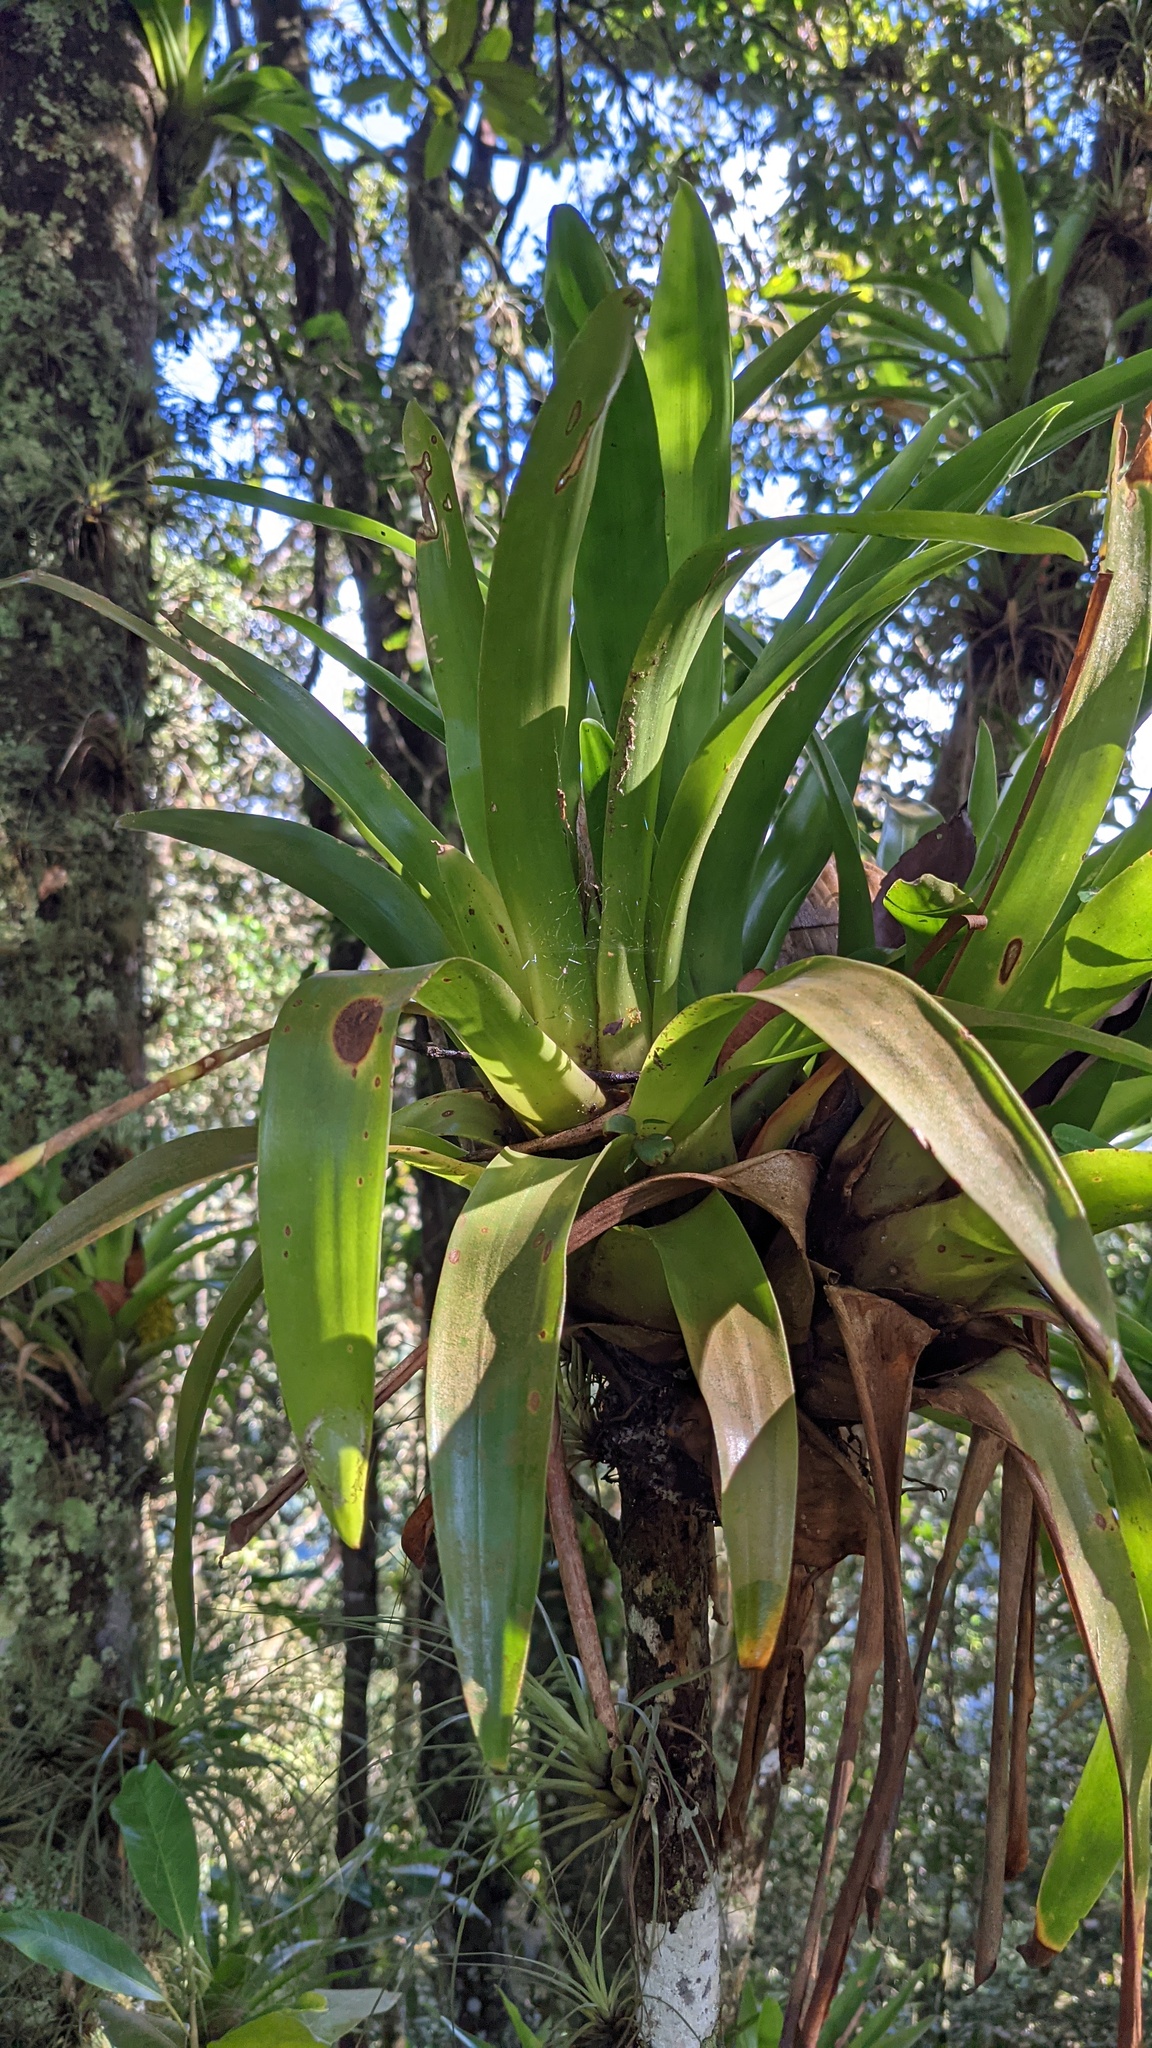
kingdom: Plantae
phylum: Tracheophyta
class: Liliopsida
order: Poales
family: Bromeliaceae
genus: Racinaea
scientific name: Racinaea spiculosa
